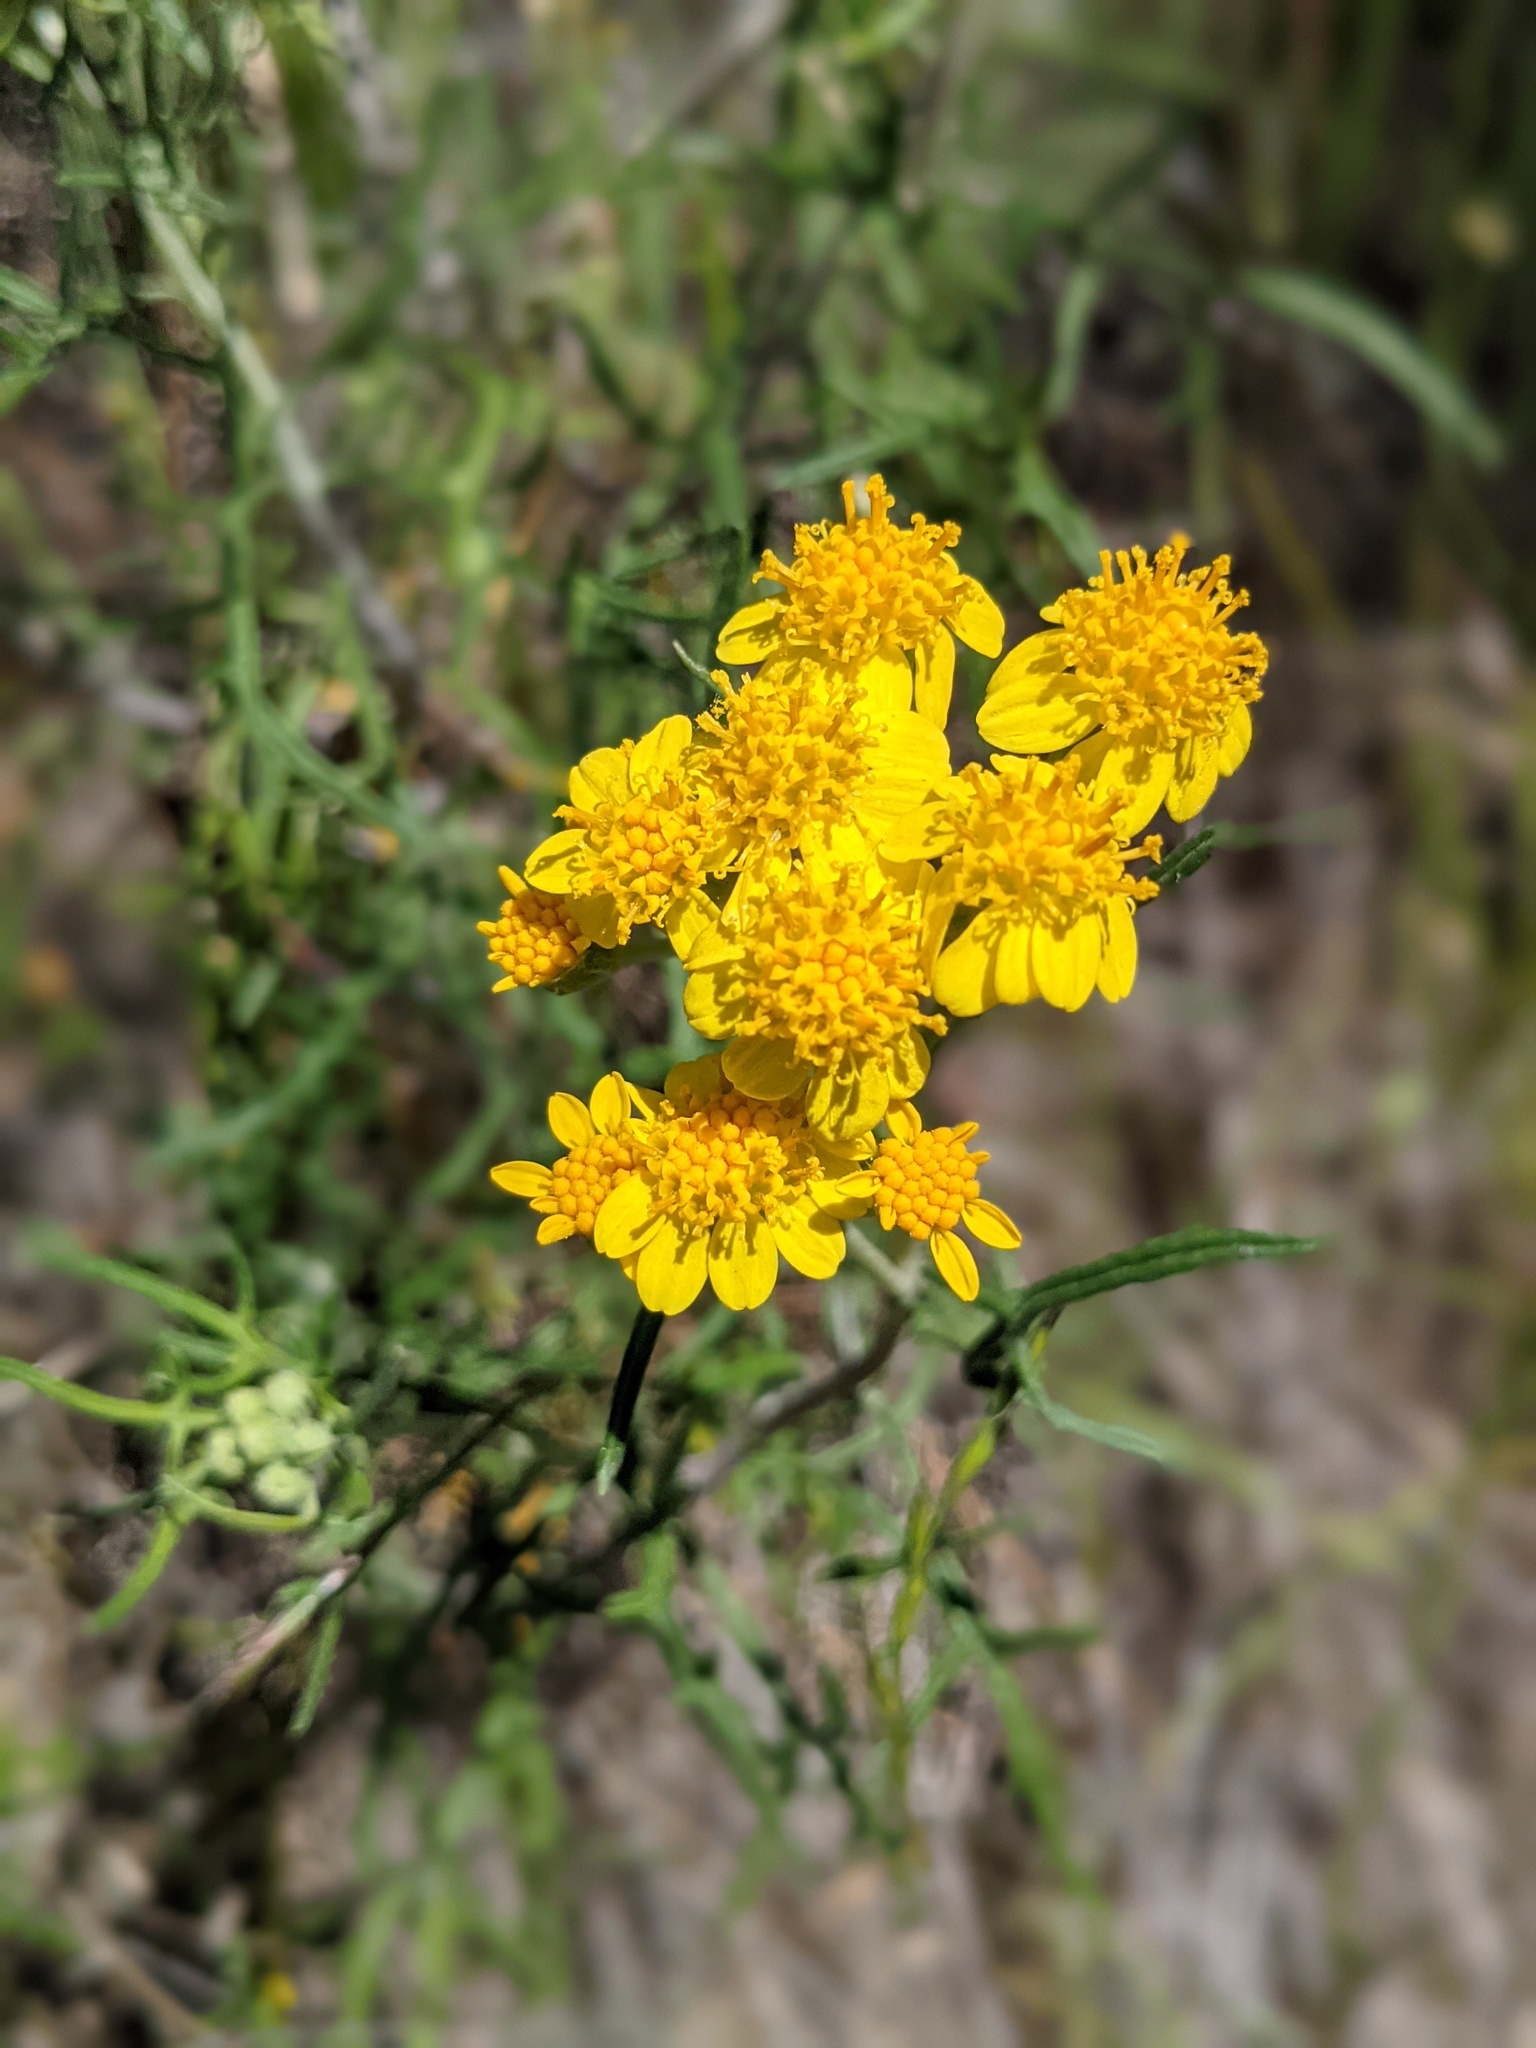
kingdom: Plantae
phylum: Tracheophyta
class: Magnoliopsida
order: Asterales
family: Asteraceae
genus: Eriophyllum
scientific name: Eriophyllum confertiflorum
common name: Golden-yarrow
